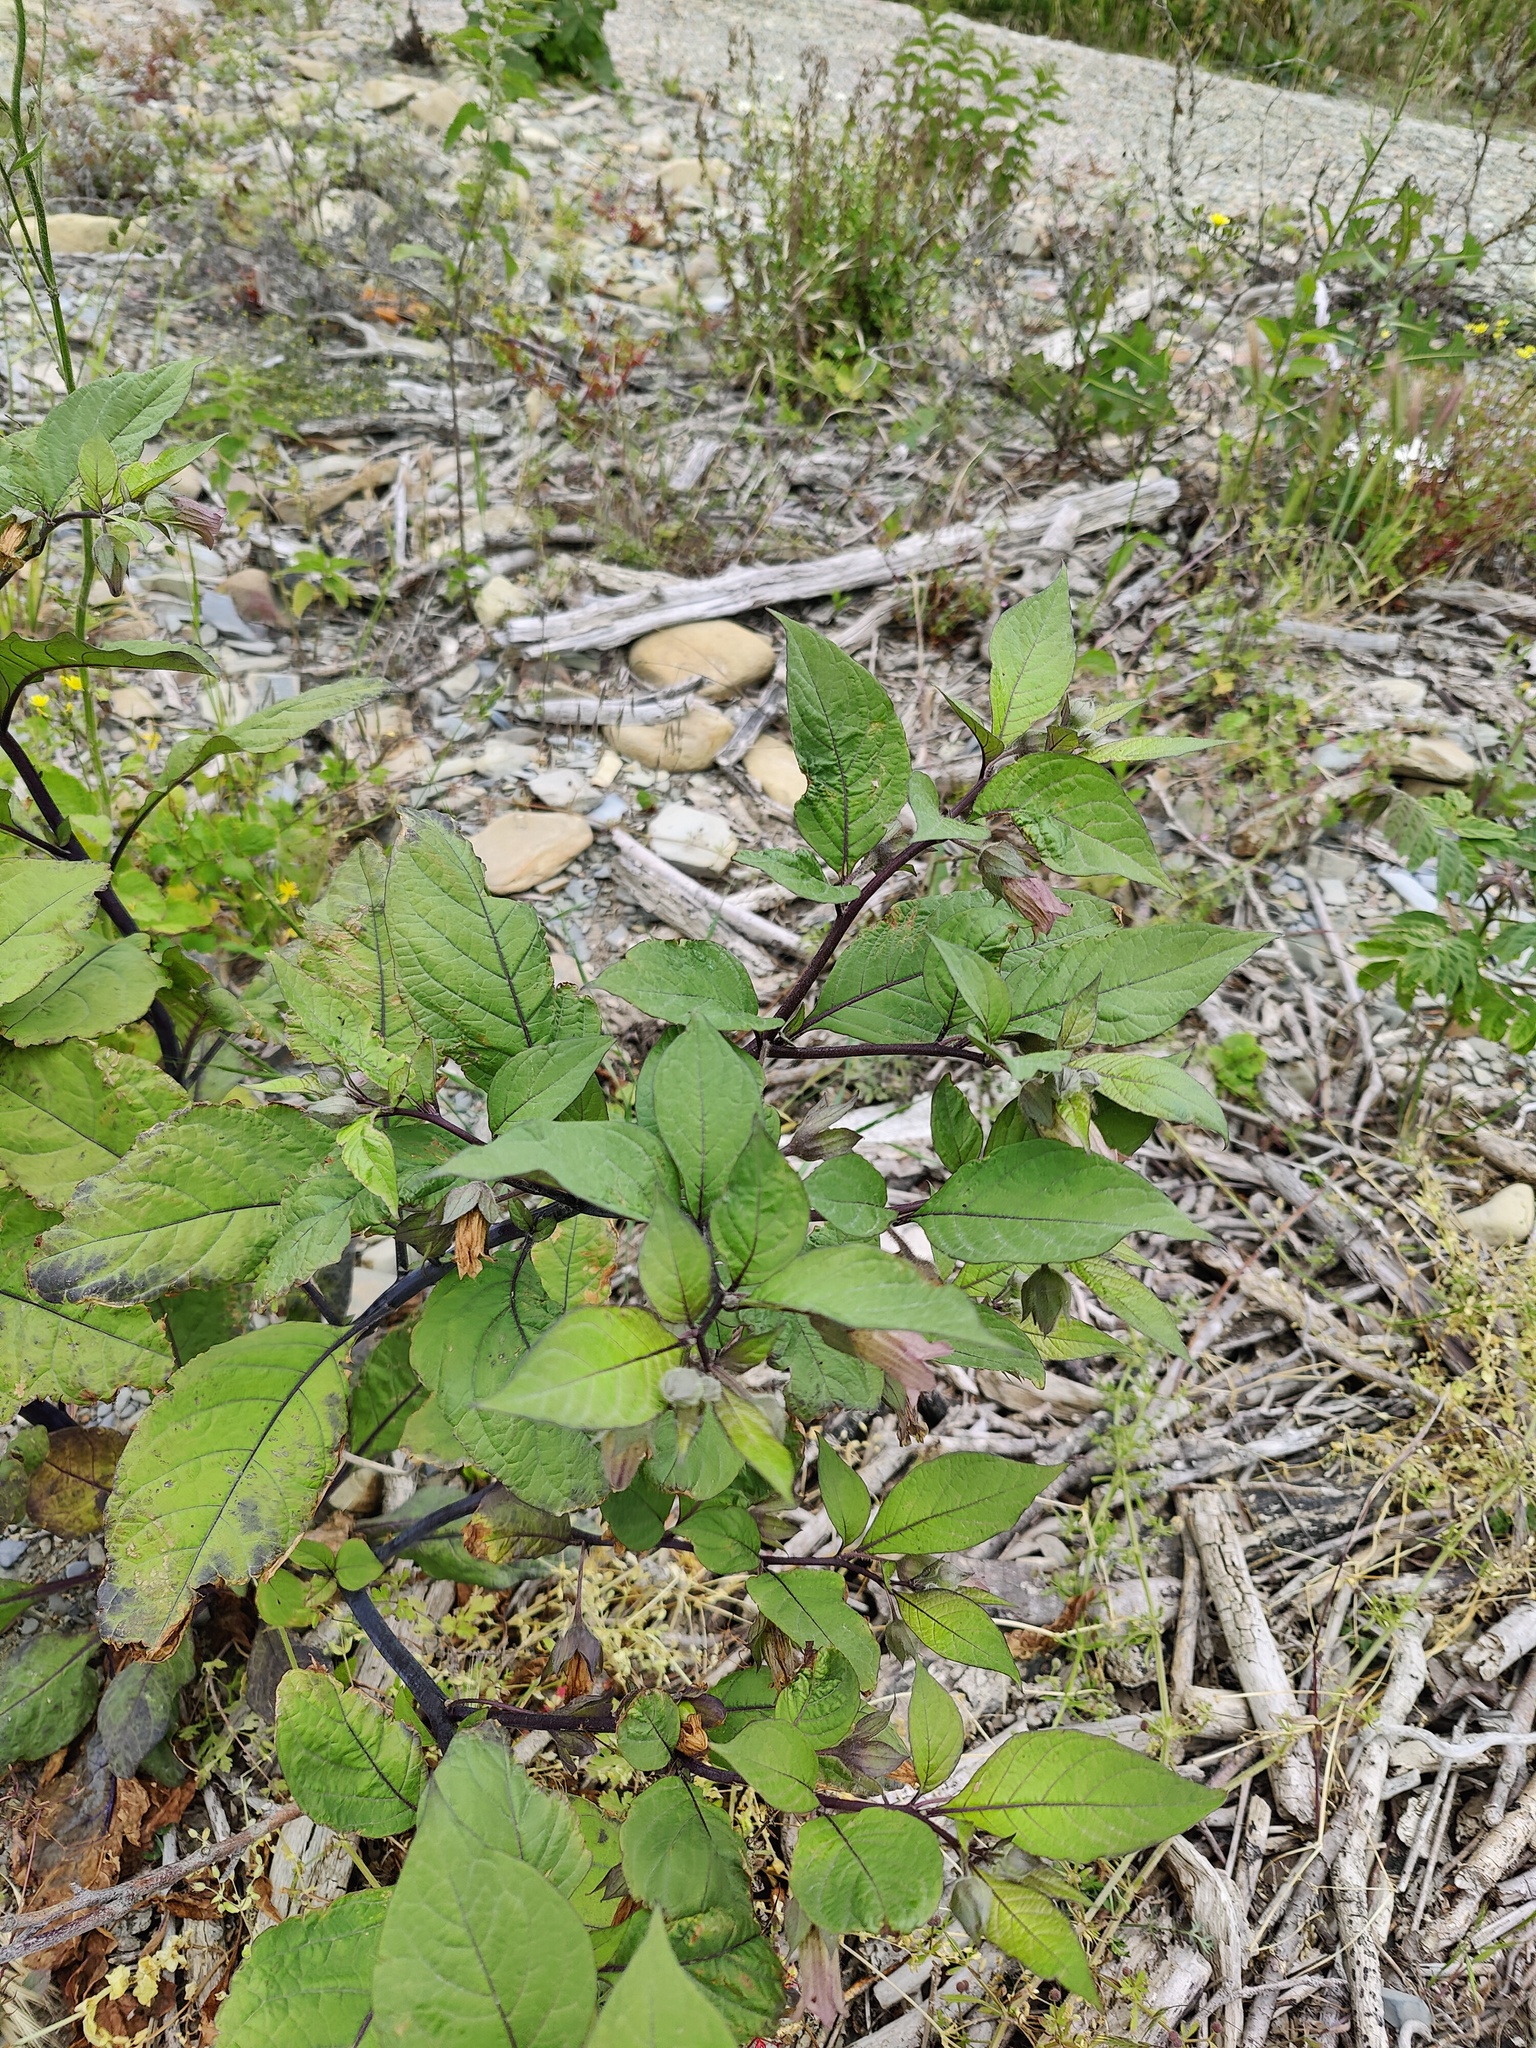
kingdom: Plantae
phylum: Tracheophyta
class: Magnoliopsida
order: Solanales
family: Solanaceae
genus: Atropa
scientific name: Atropa belladonna
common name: Deadly nightshade
